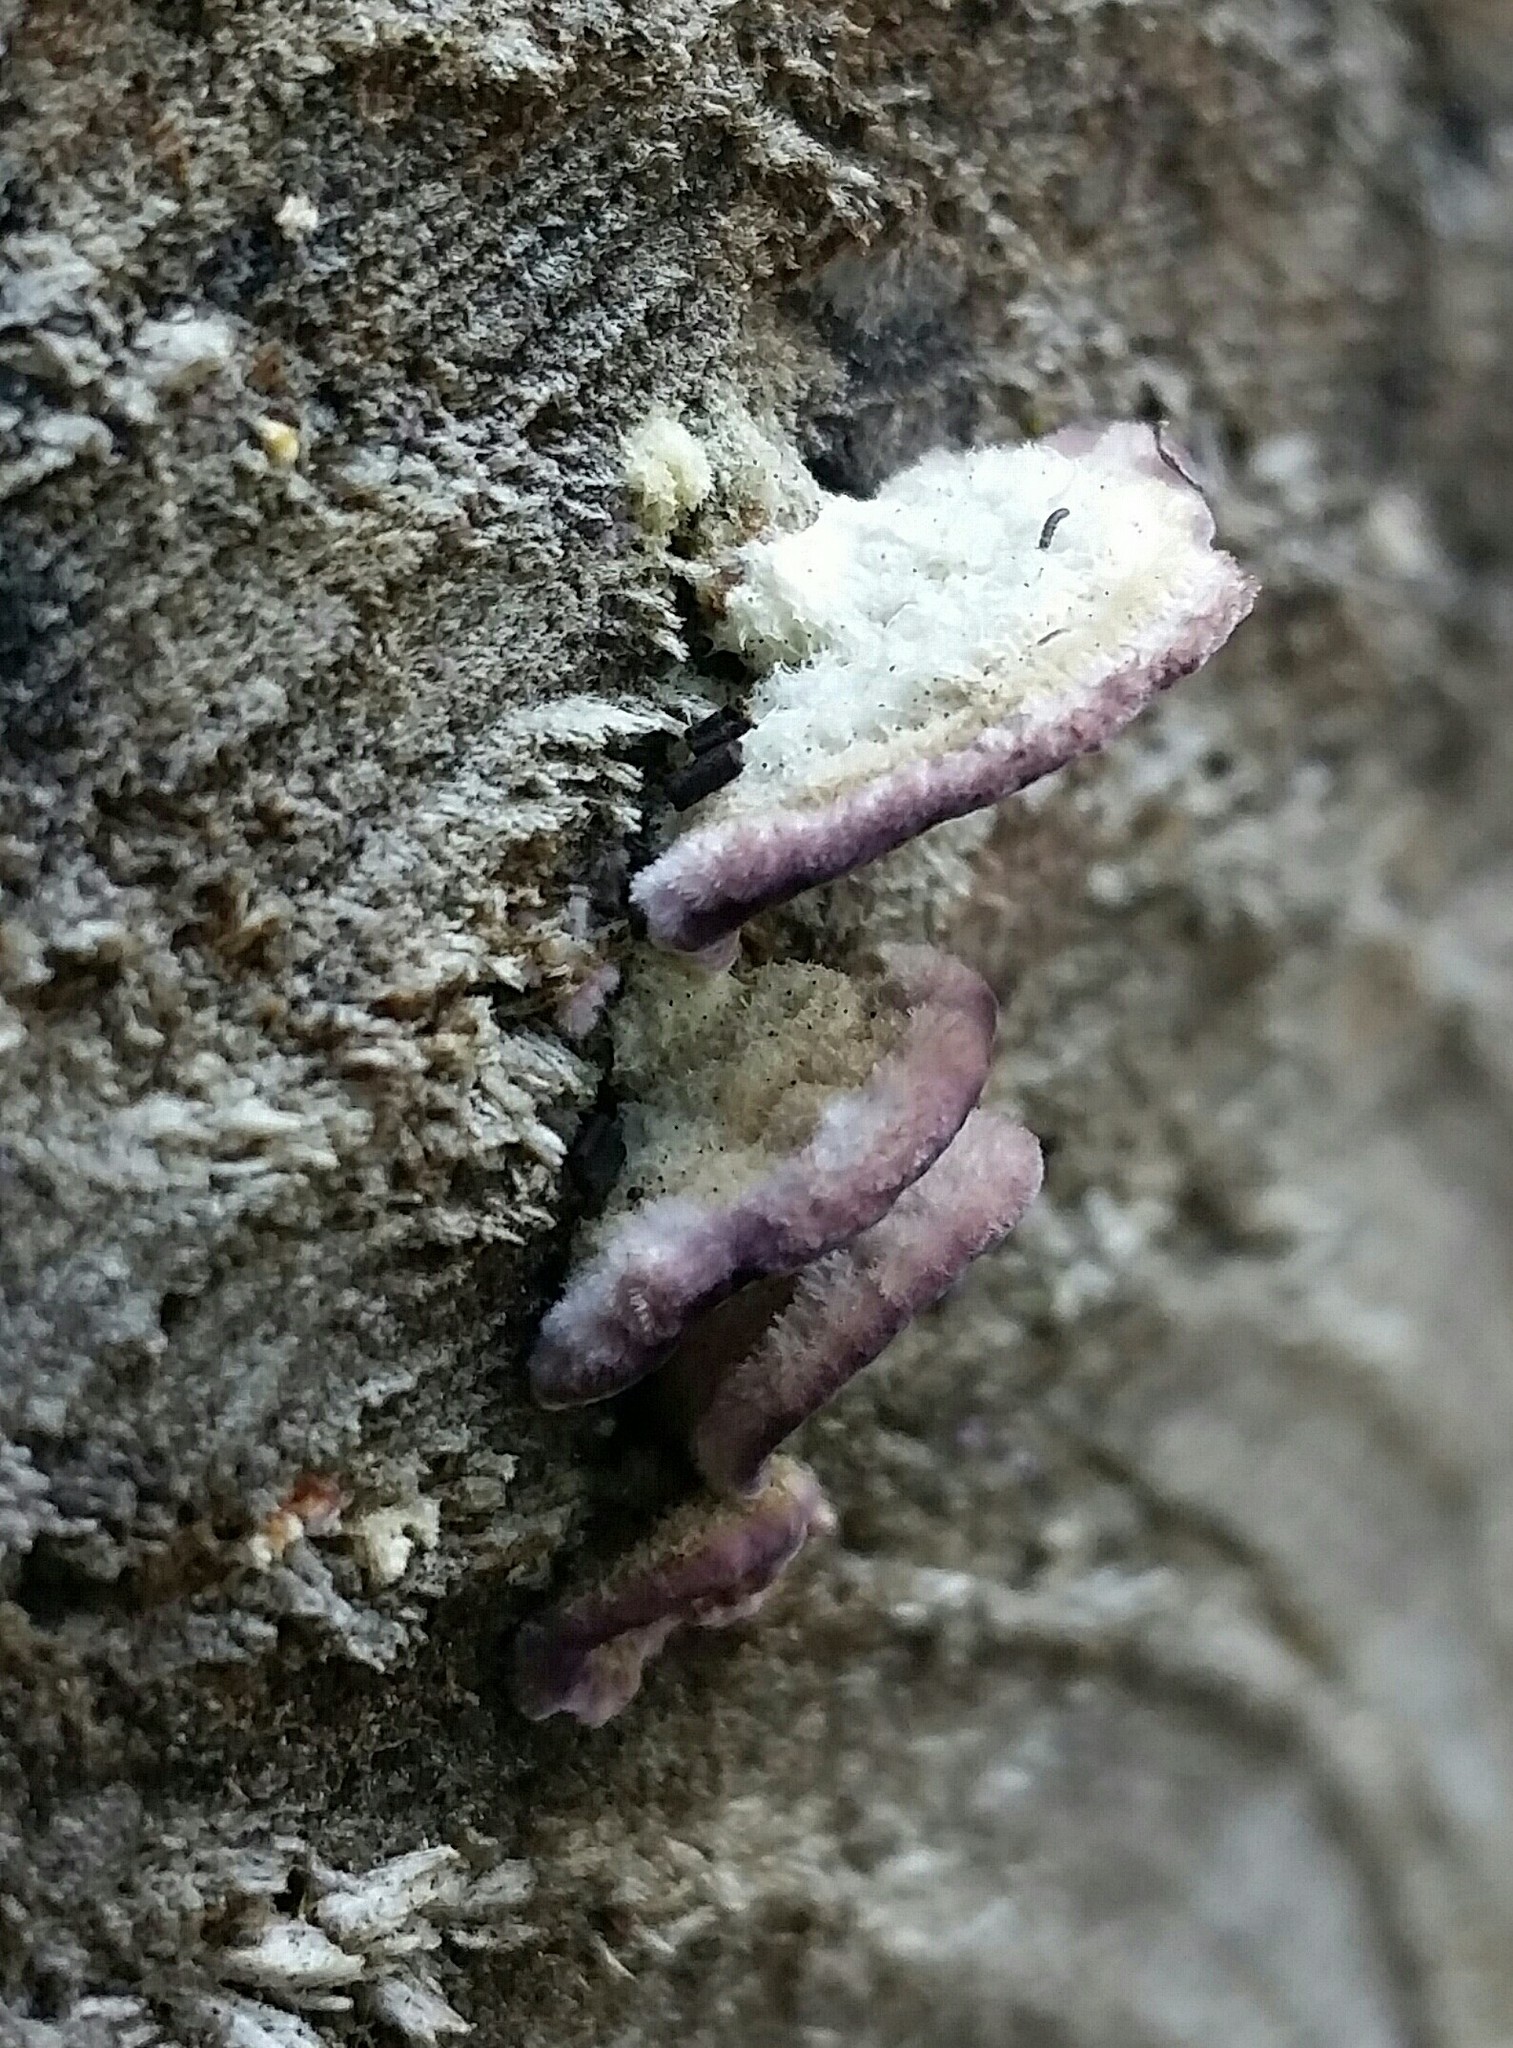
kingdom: Fungi
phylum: Basidiomycota
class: Agaricomycetes
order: Hymenochaetales
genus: Trichaptum
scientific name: Trichaptum fuscoviolaceum
